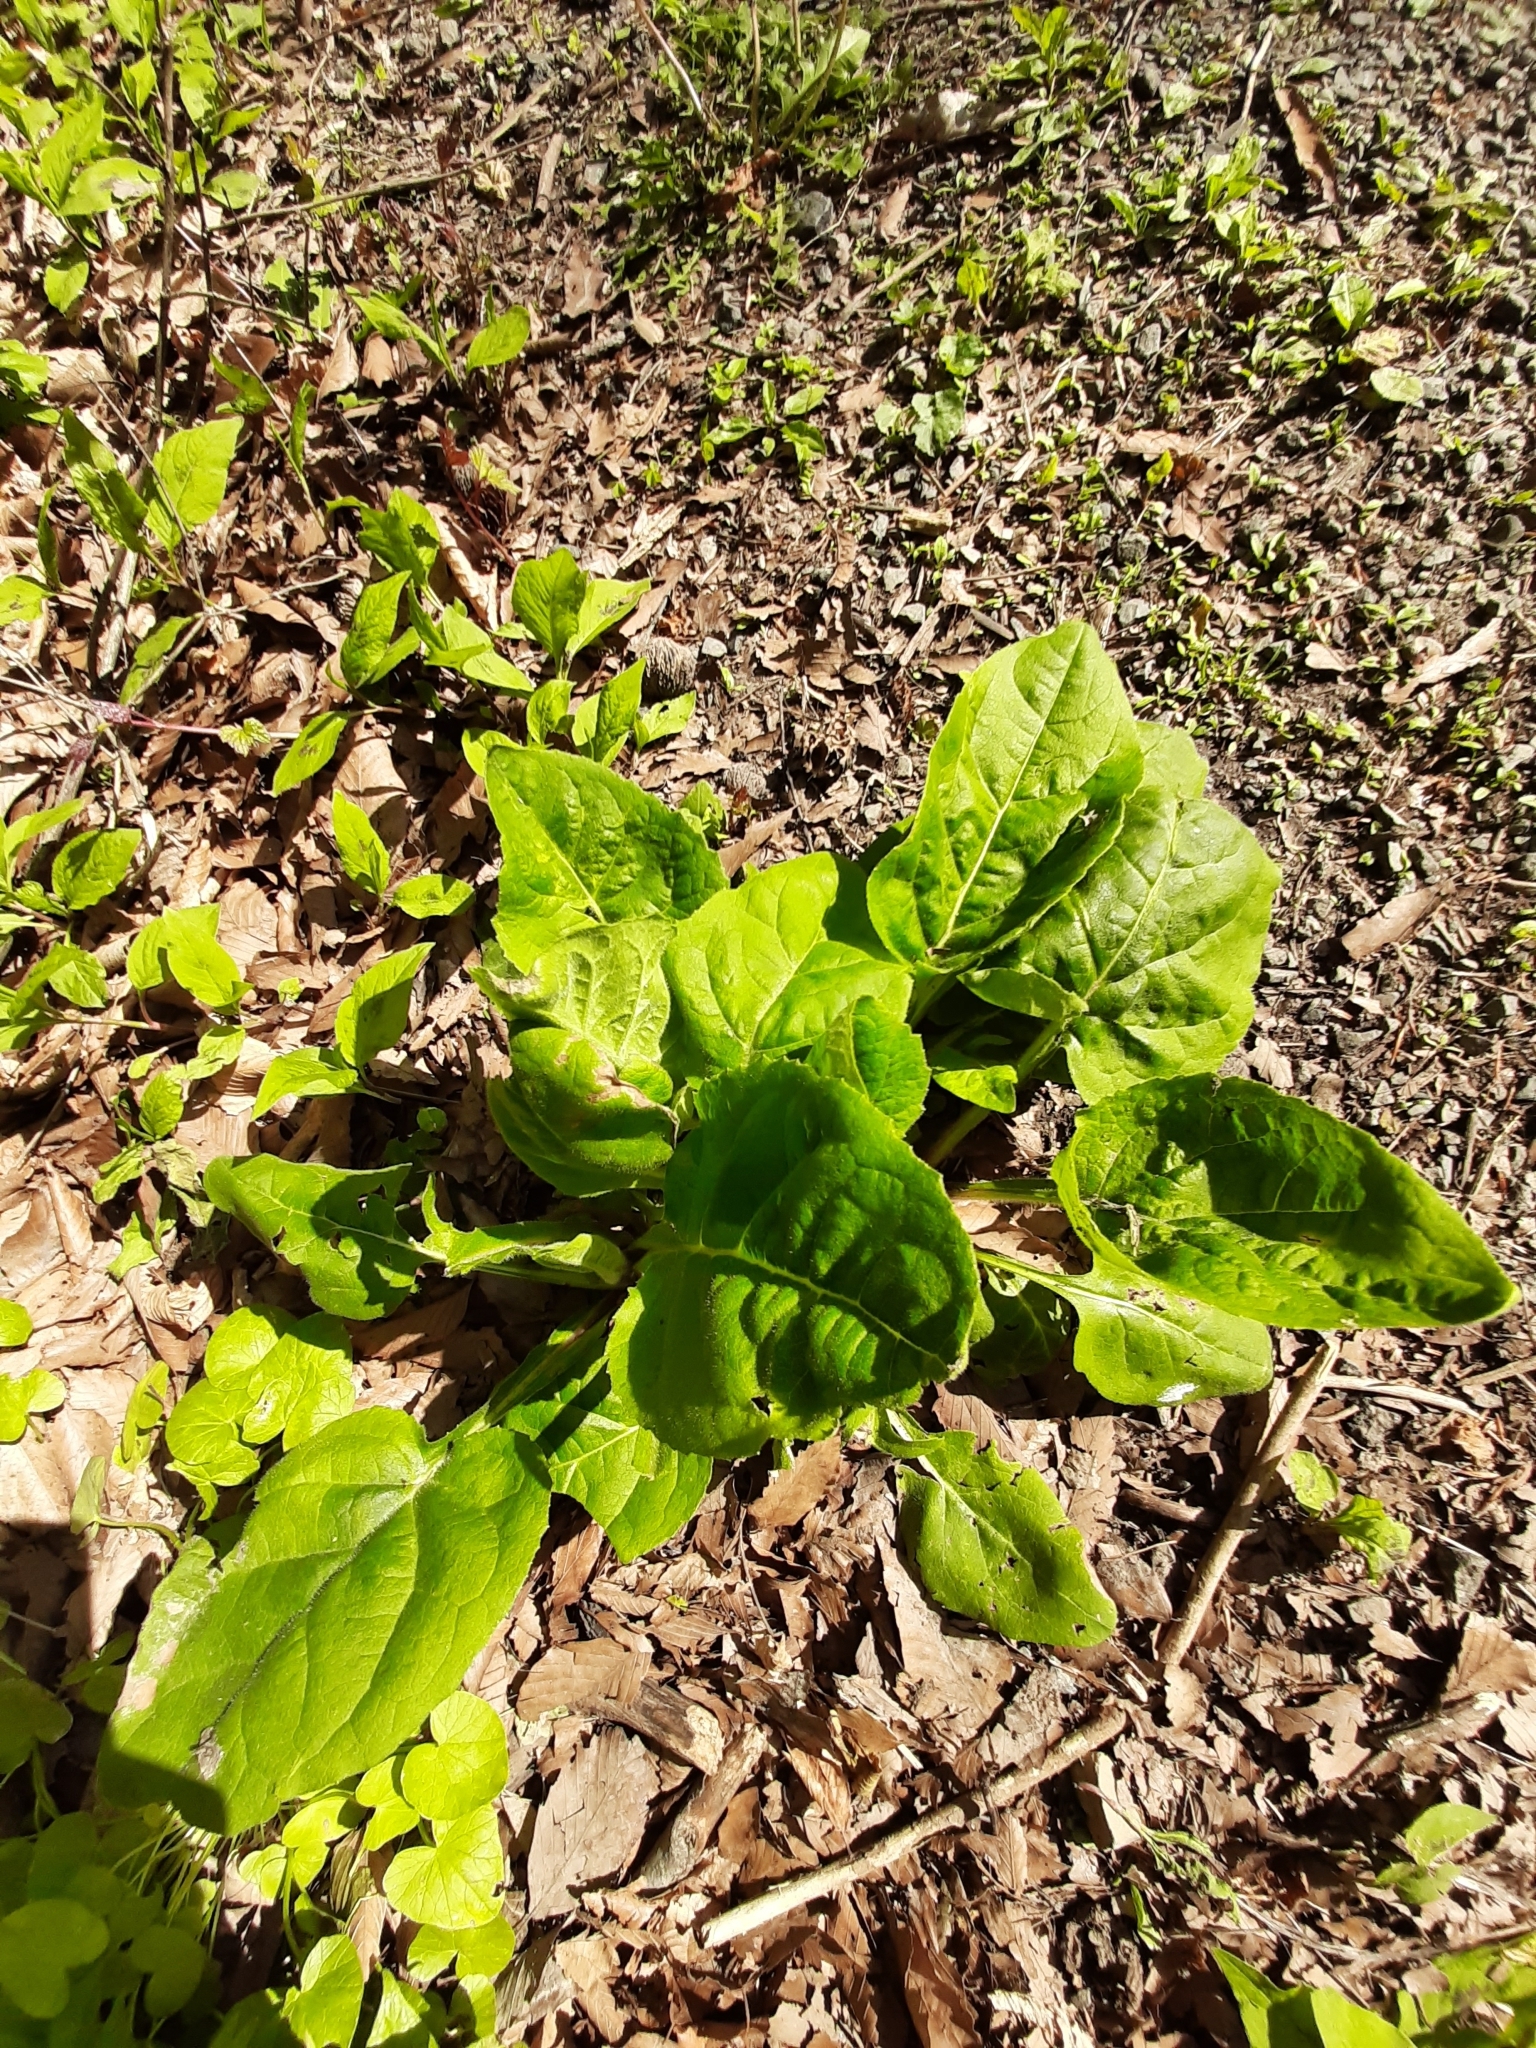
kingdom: Plantae
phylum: Tracheophyta
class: Magnoliopsida
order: Asterales
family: Asteraceae
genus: Arctium
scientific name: Arctium minus
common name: Lesser burdock
